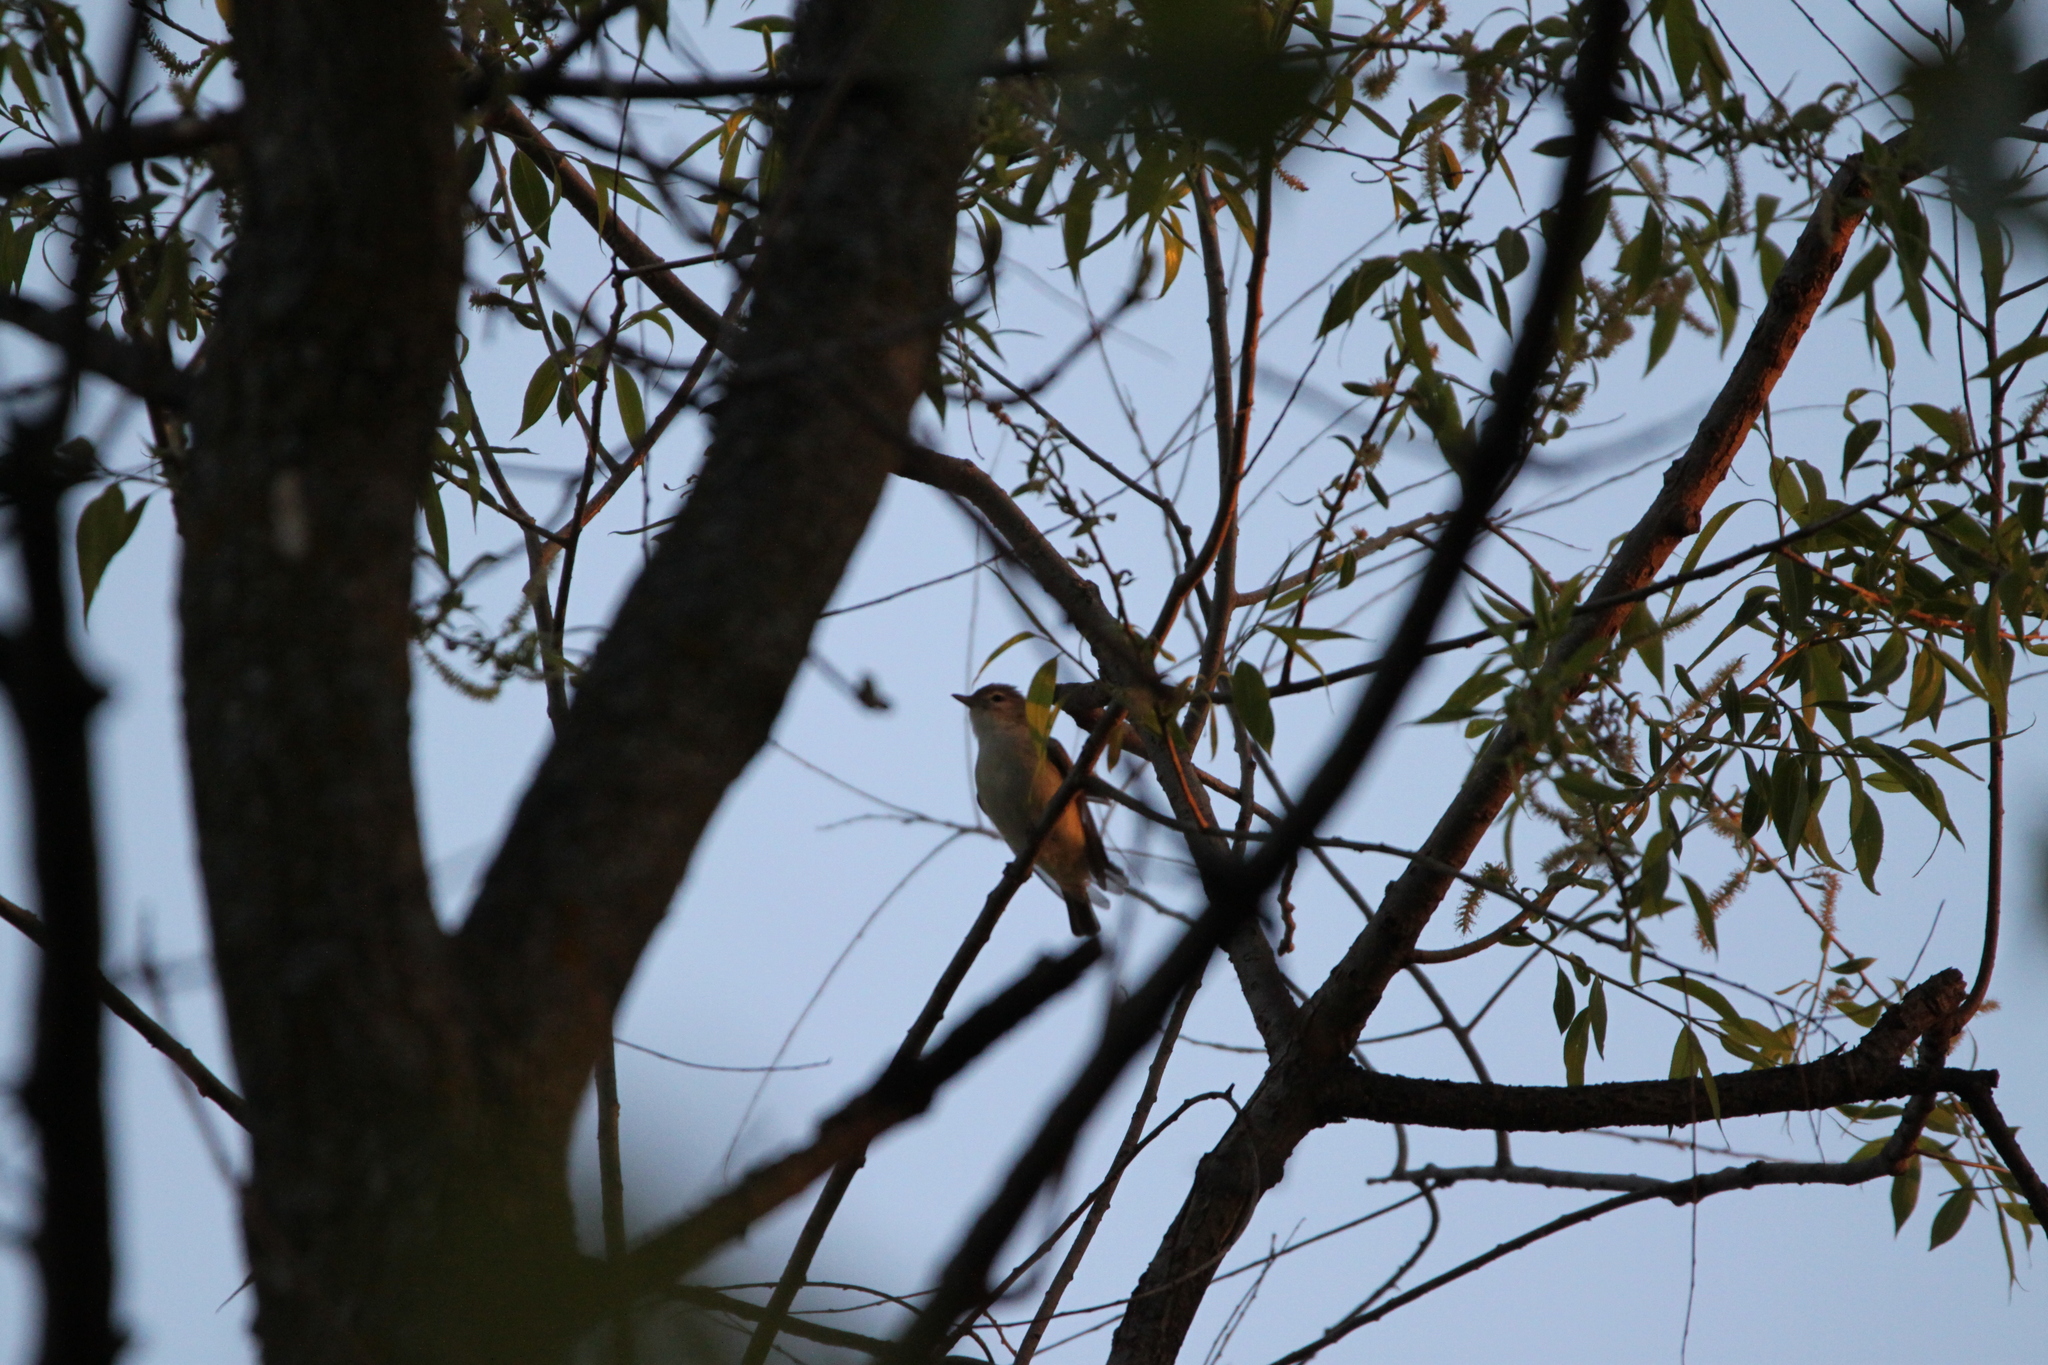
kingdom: Animalia
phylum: Chordata
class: Aves
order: Passeriformes
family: Vireonidae
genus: Vireo
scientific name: Vireo gilvus
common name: Warbling vireo
